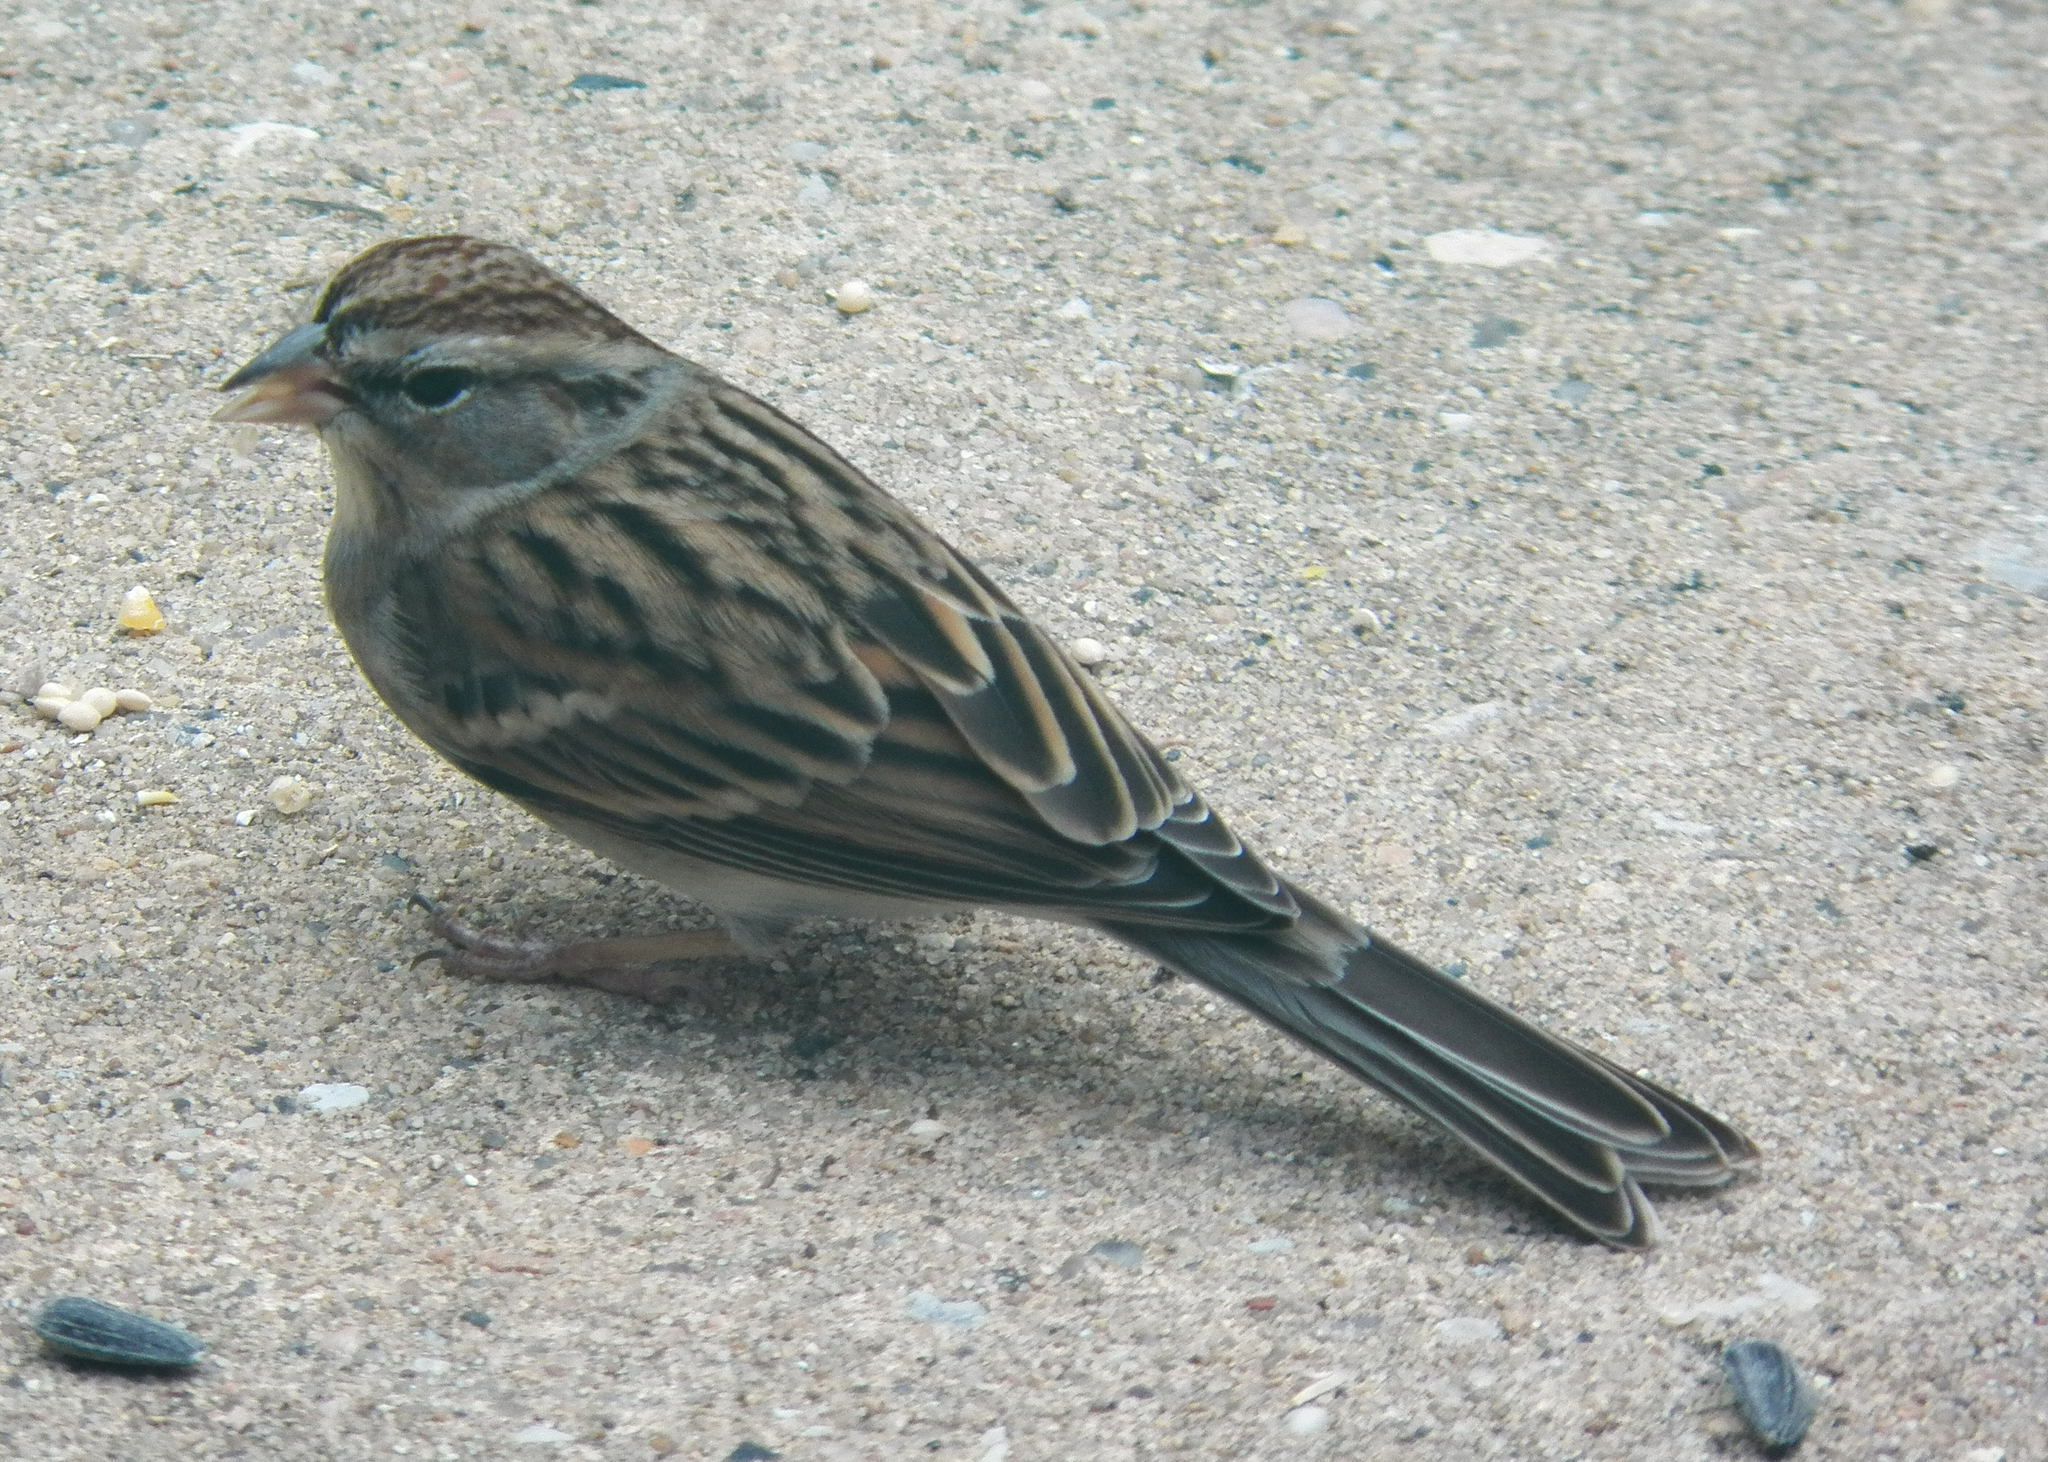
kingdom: Animalia
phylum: Chordata
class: Aves
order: Passeriformes
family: Passerellidae
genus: Spizella
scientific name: Spizella passerina
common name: Chipping sparrow
